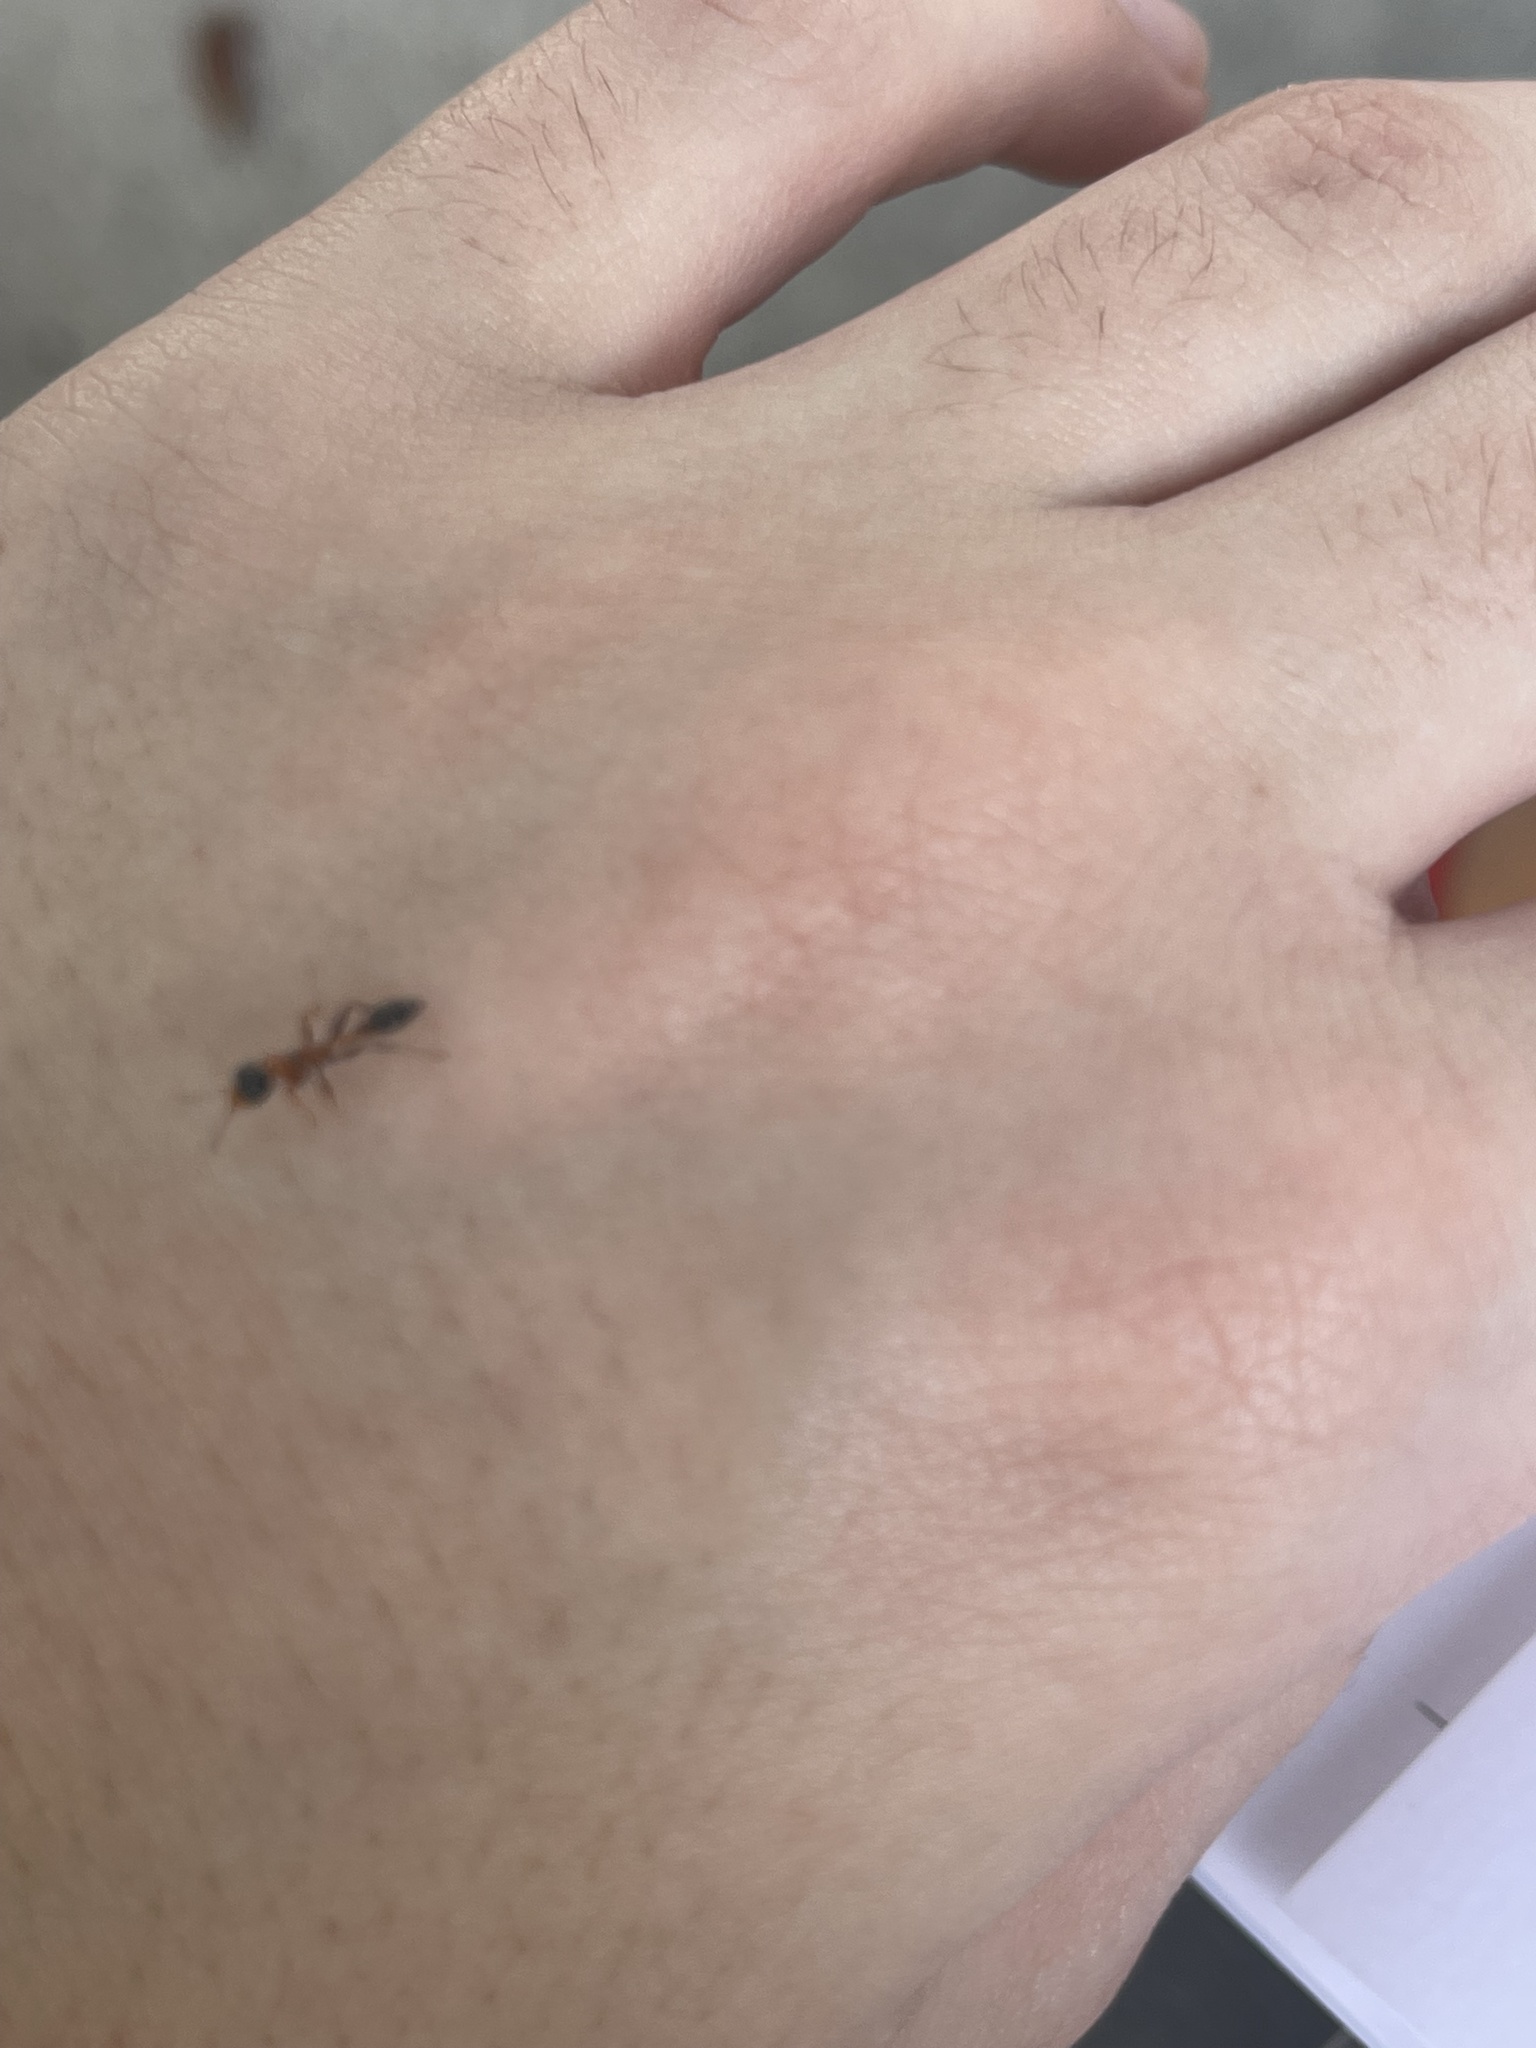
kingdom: Animalia
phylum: Arthropoda
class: Insecta
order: Hymenoptera
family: Formicidae
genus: Pseudomyrmex
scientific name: Pseudomyrmex gracilis
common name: Graceful twig ant
